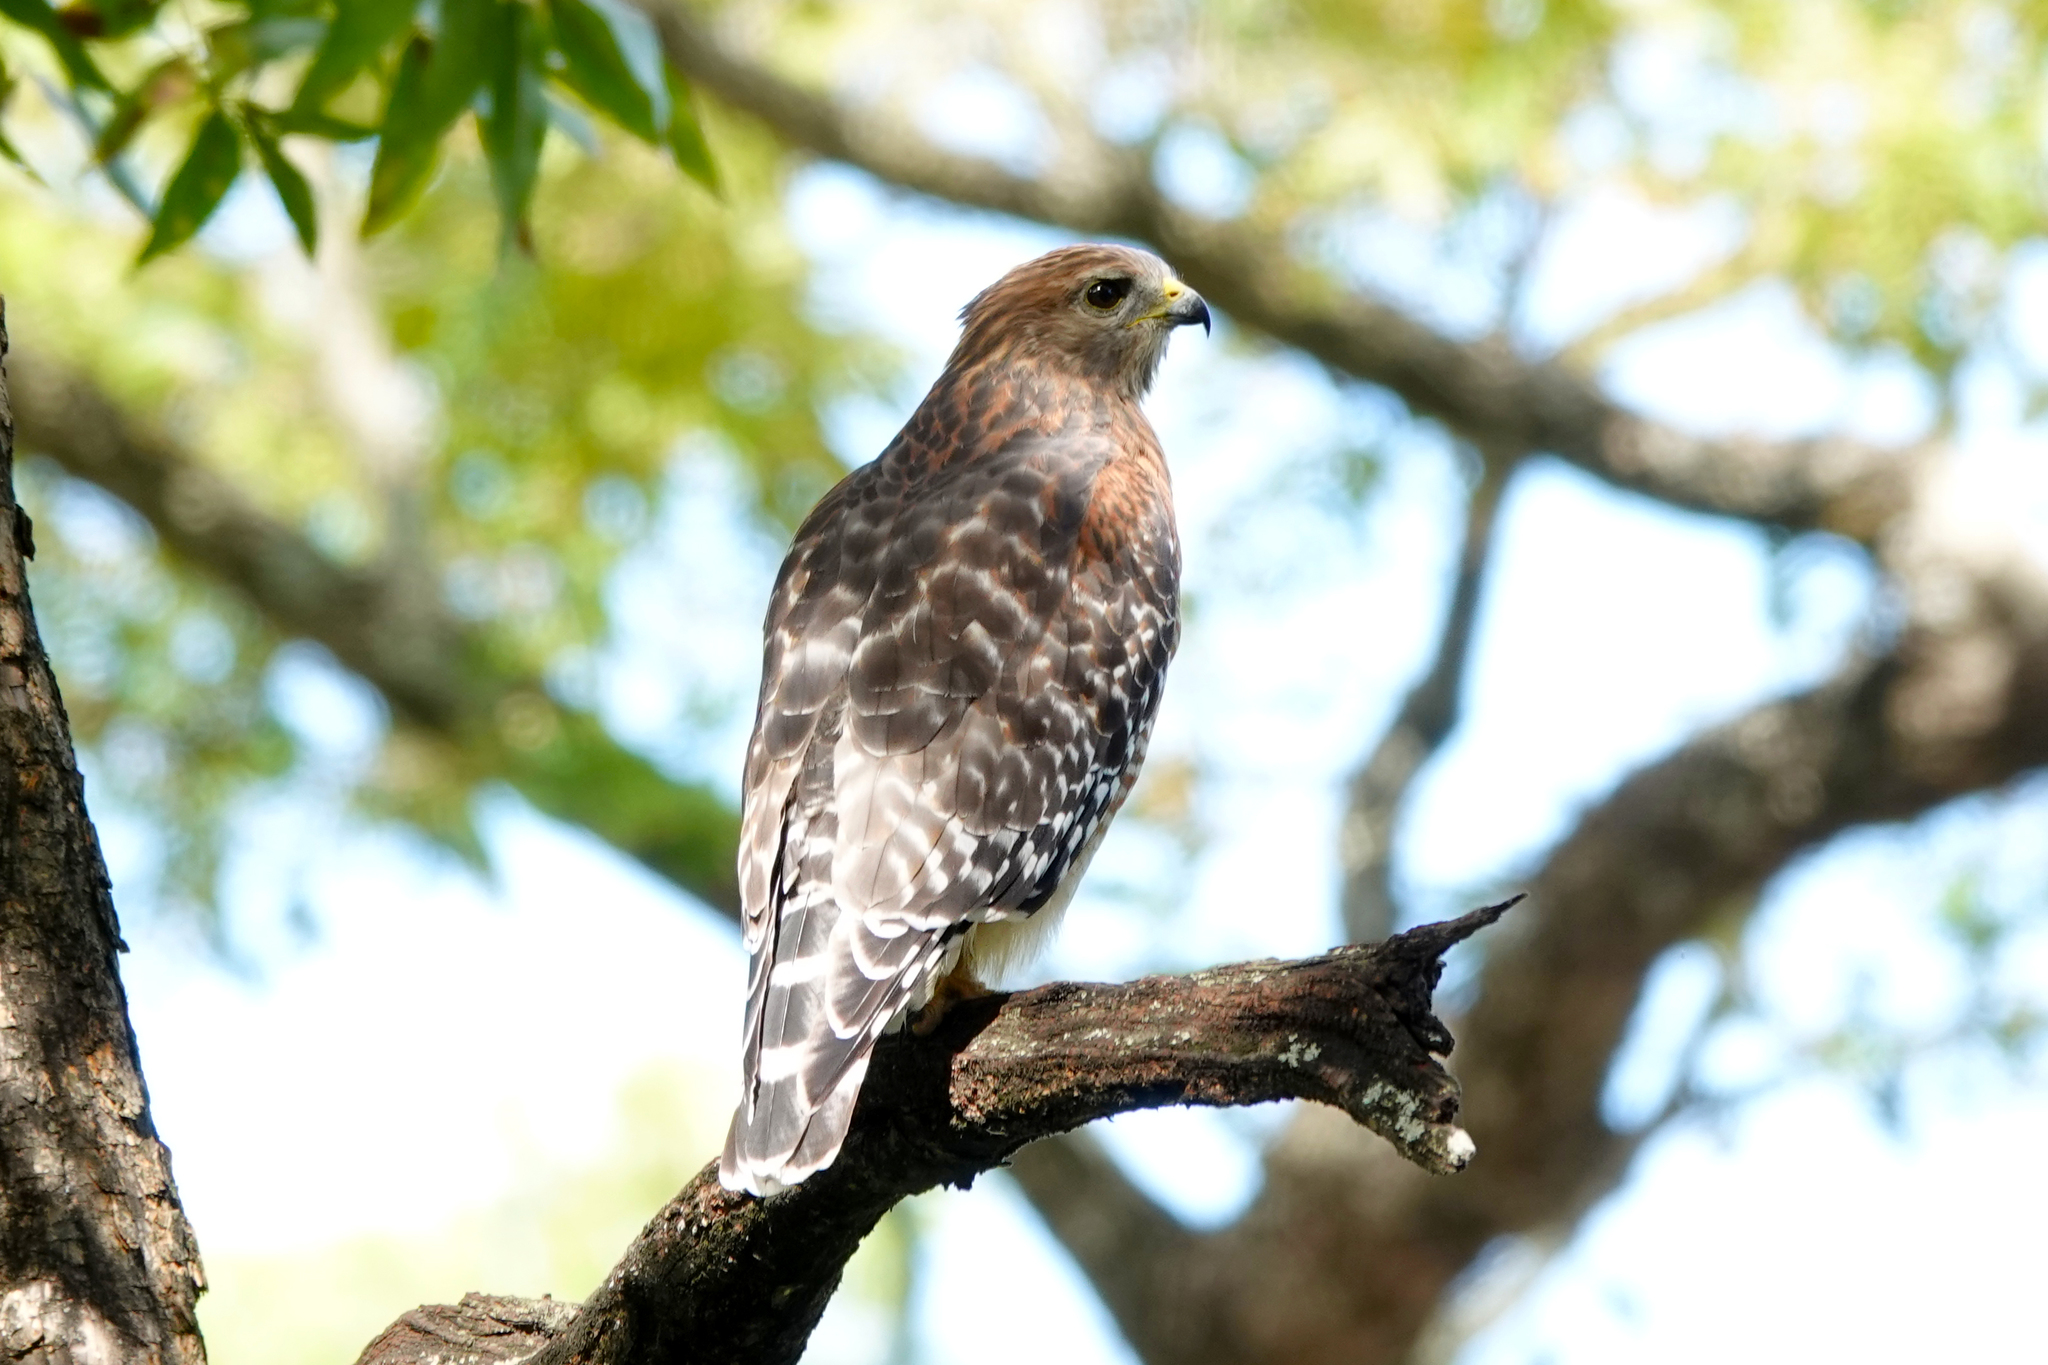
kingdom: Animalia
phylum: Chordata
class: Aves
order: Accipitriformes
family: Accipitridae
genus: Buteo
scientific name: Buteo lineatus
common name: Red-shouldered hawk
